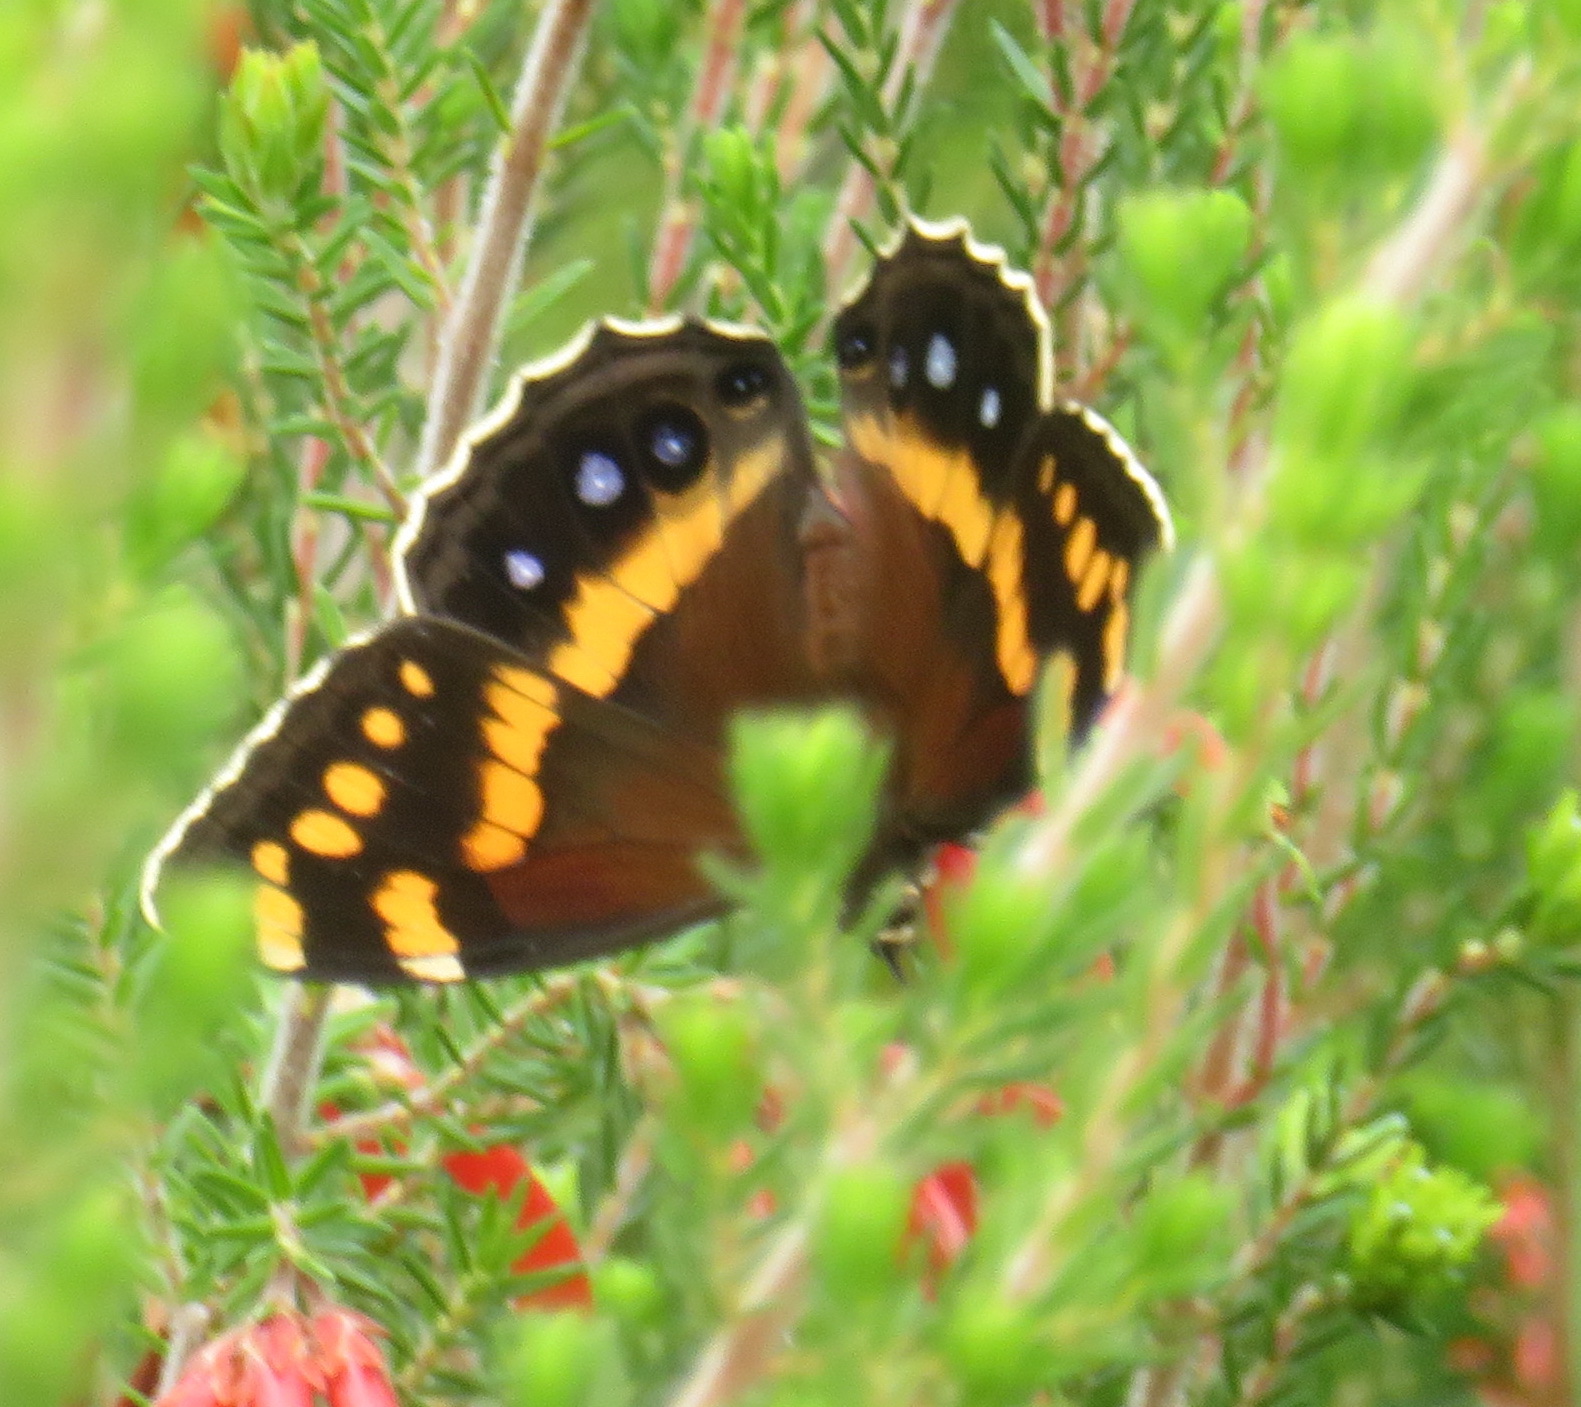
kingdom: Animalia
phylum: Arthropoda
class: Insecta
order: Lepidoptera
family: Nymphalidae
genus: Meneris
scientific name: Meneris Aeropetes tulbaghia
